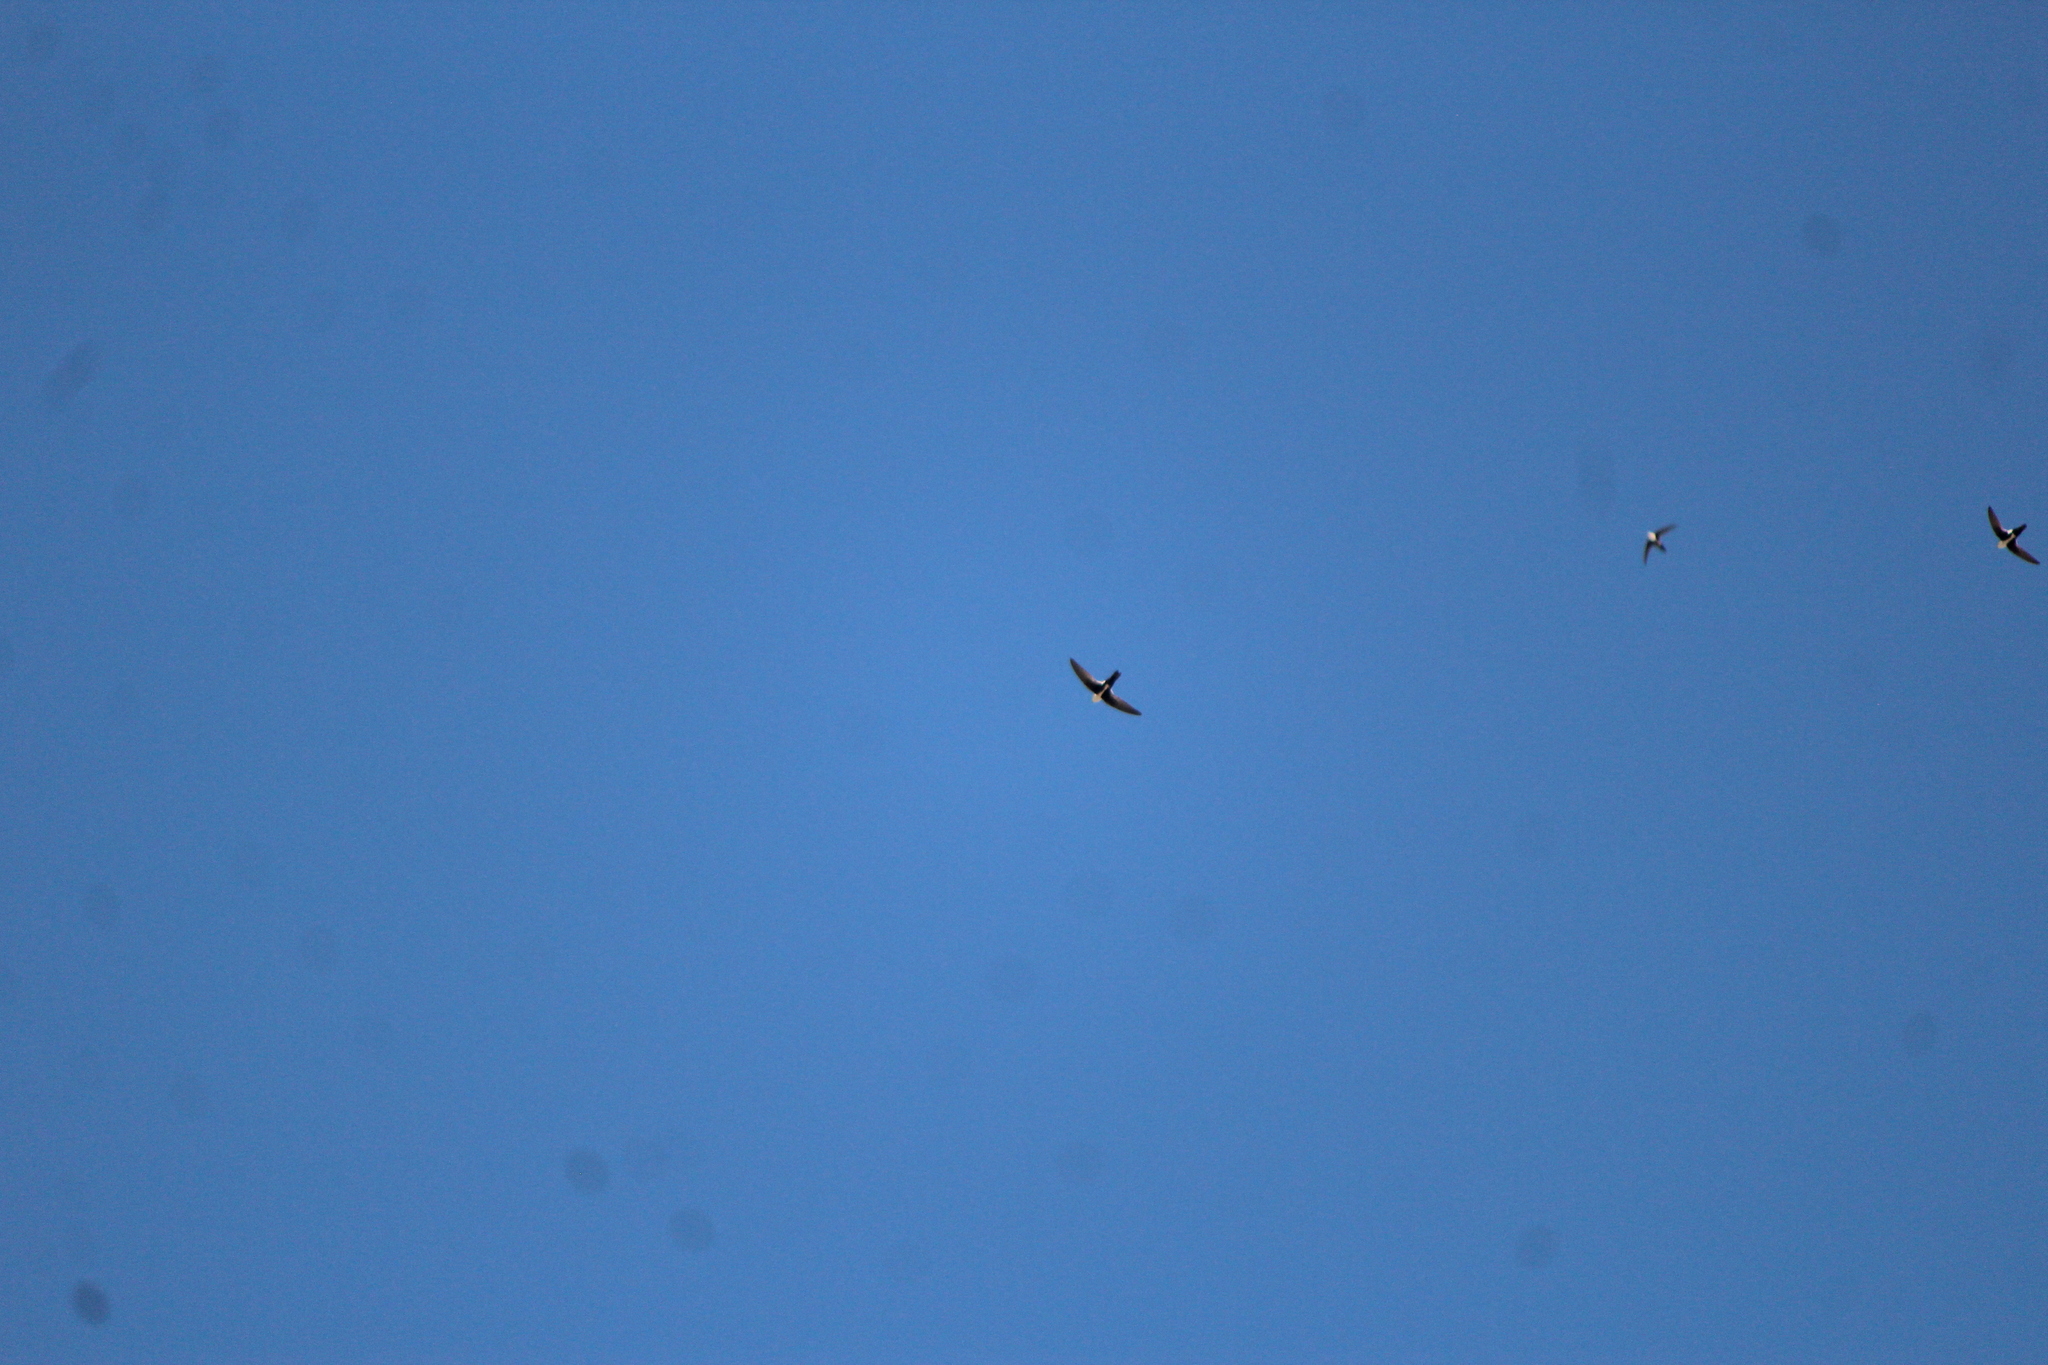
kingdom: Animalia
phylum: Chordata
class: Aves
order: Apodiformes
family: Apodidae
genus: Aeronautes
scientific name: Aeronautes saxatalis
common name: White-throated swift
